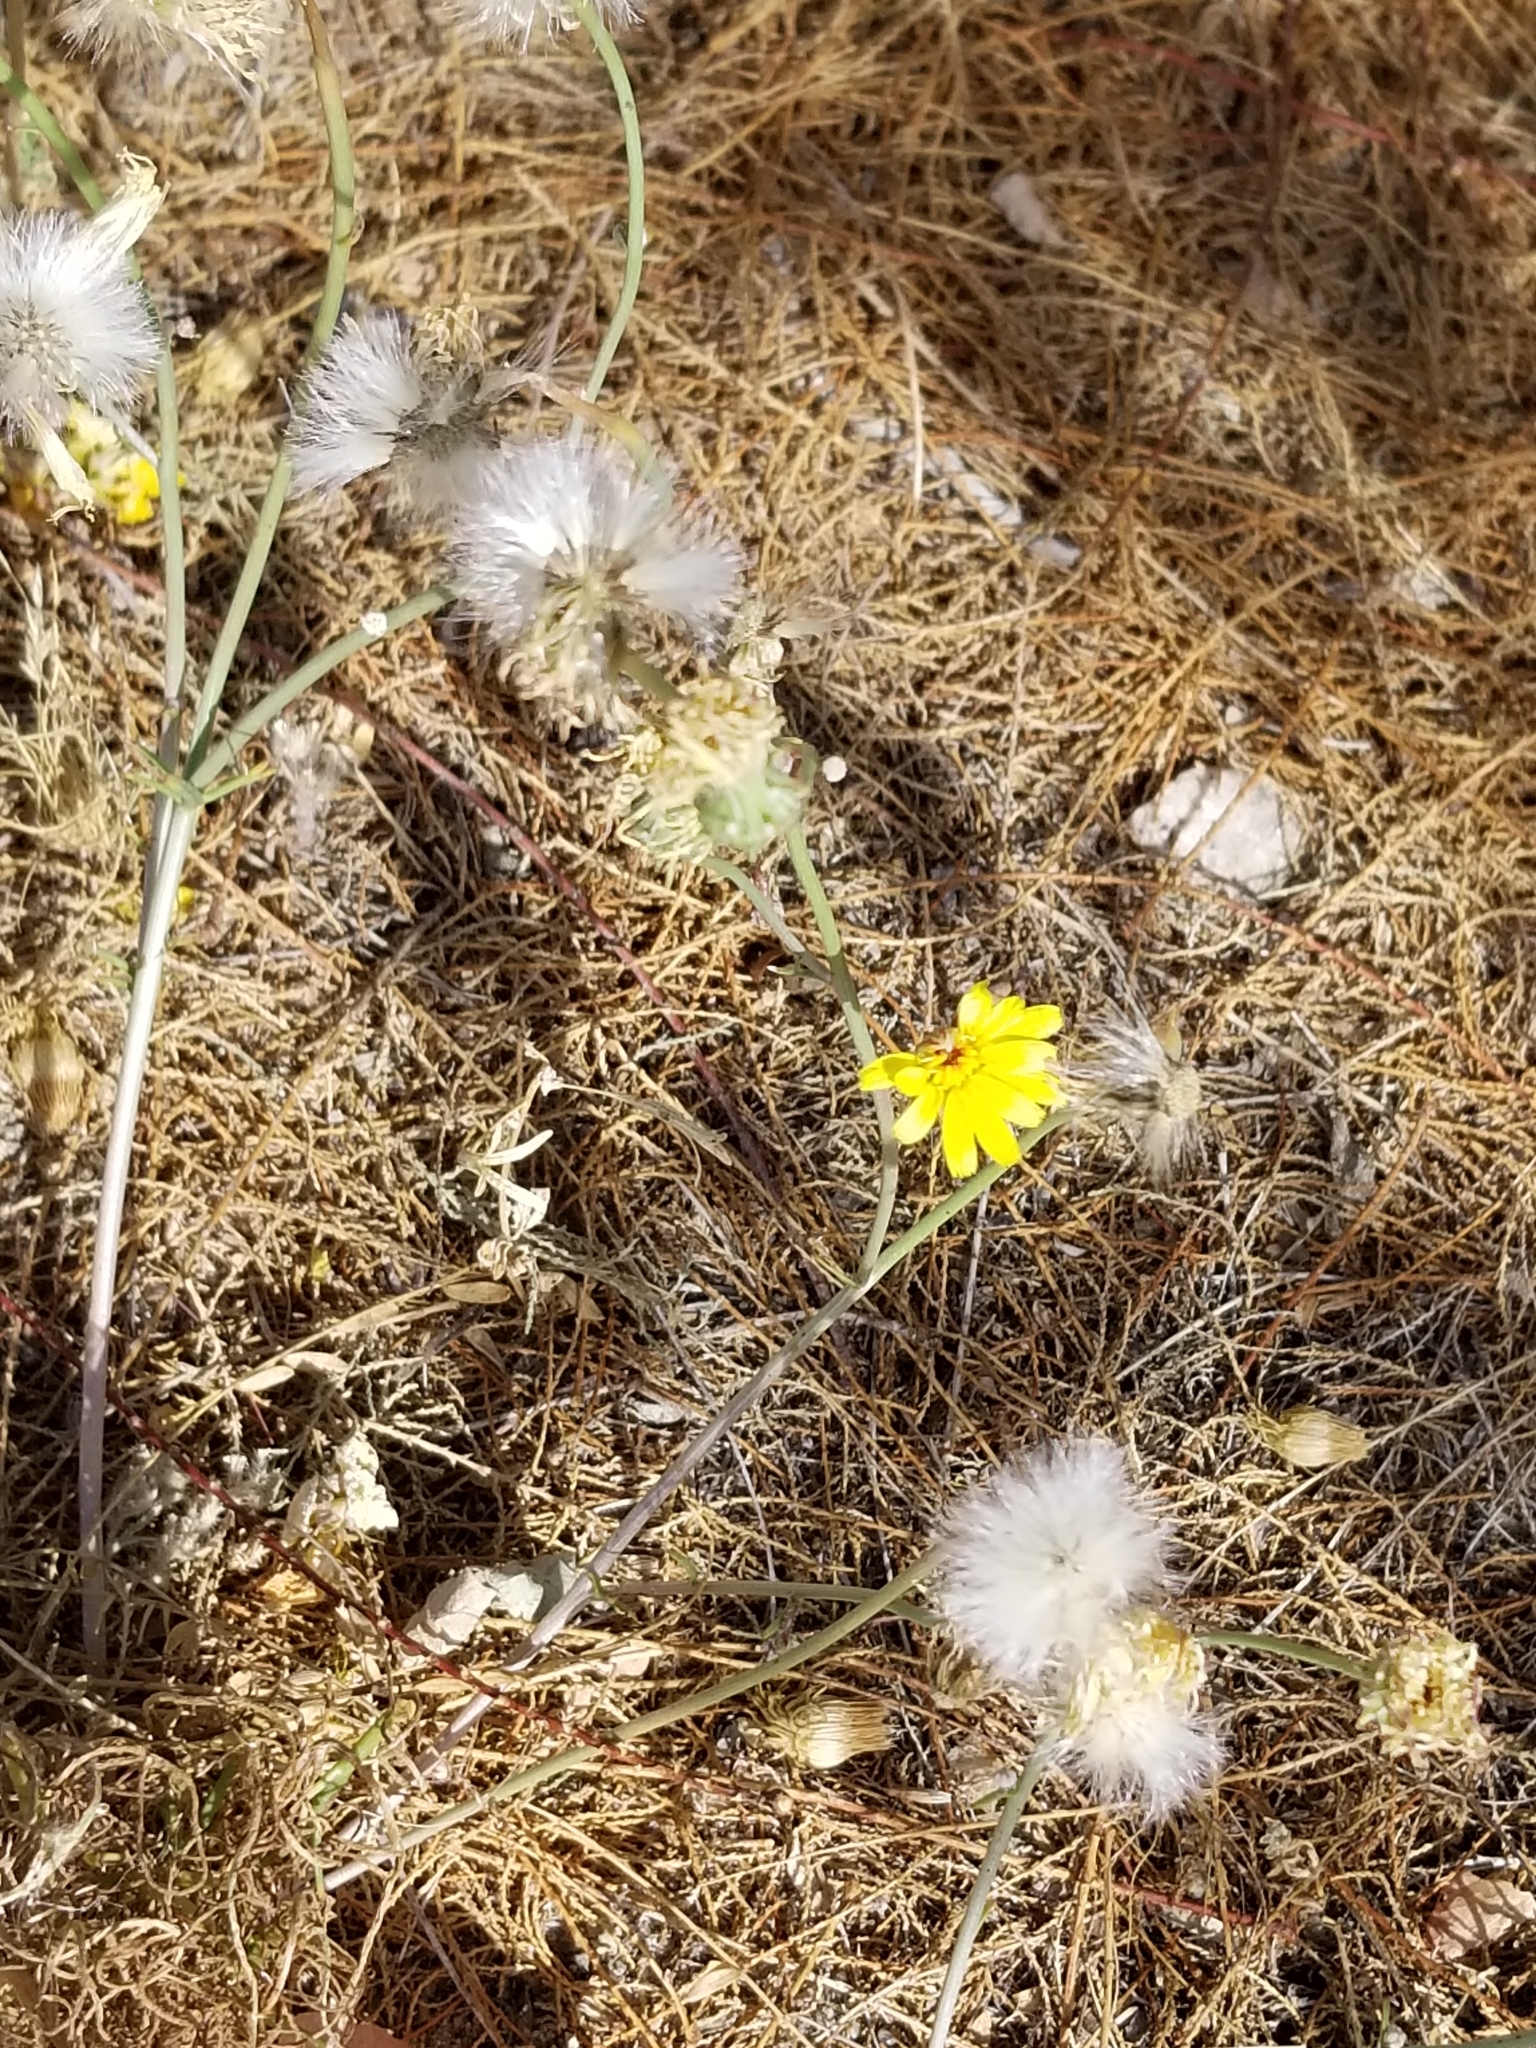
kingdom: Plantae
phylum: Tracheophyta
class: Magnoliopsida
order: Asterales
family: Asteraceae
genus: Malacothrix
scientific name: Malacothrix glabrata
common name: Smooth desert-dandelion
